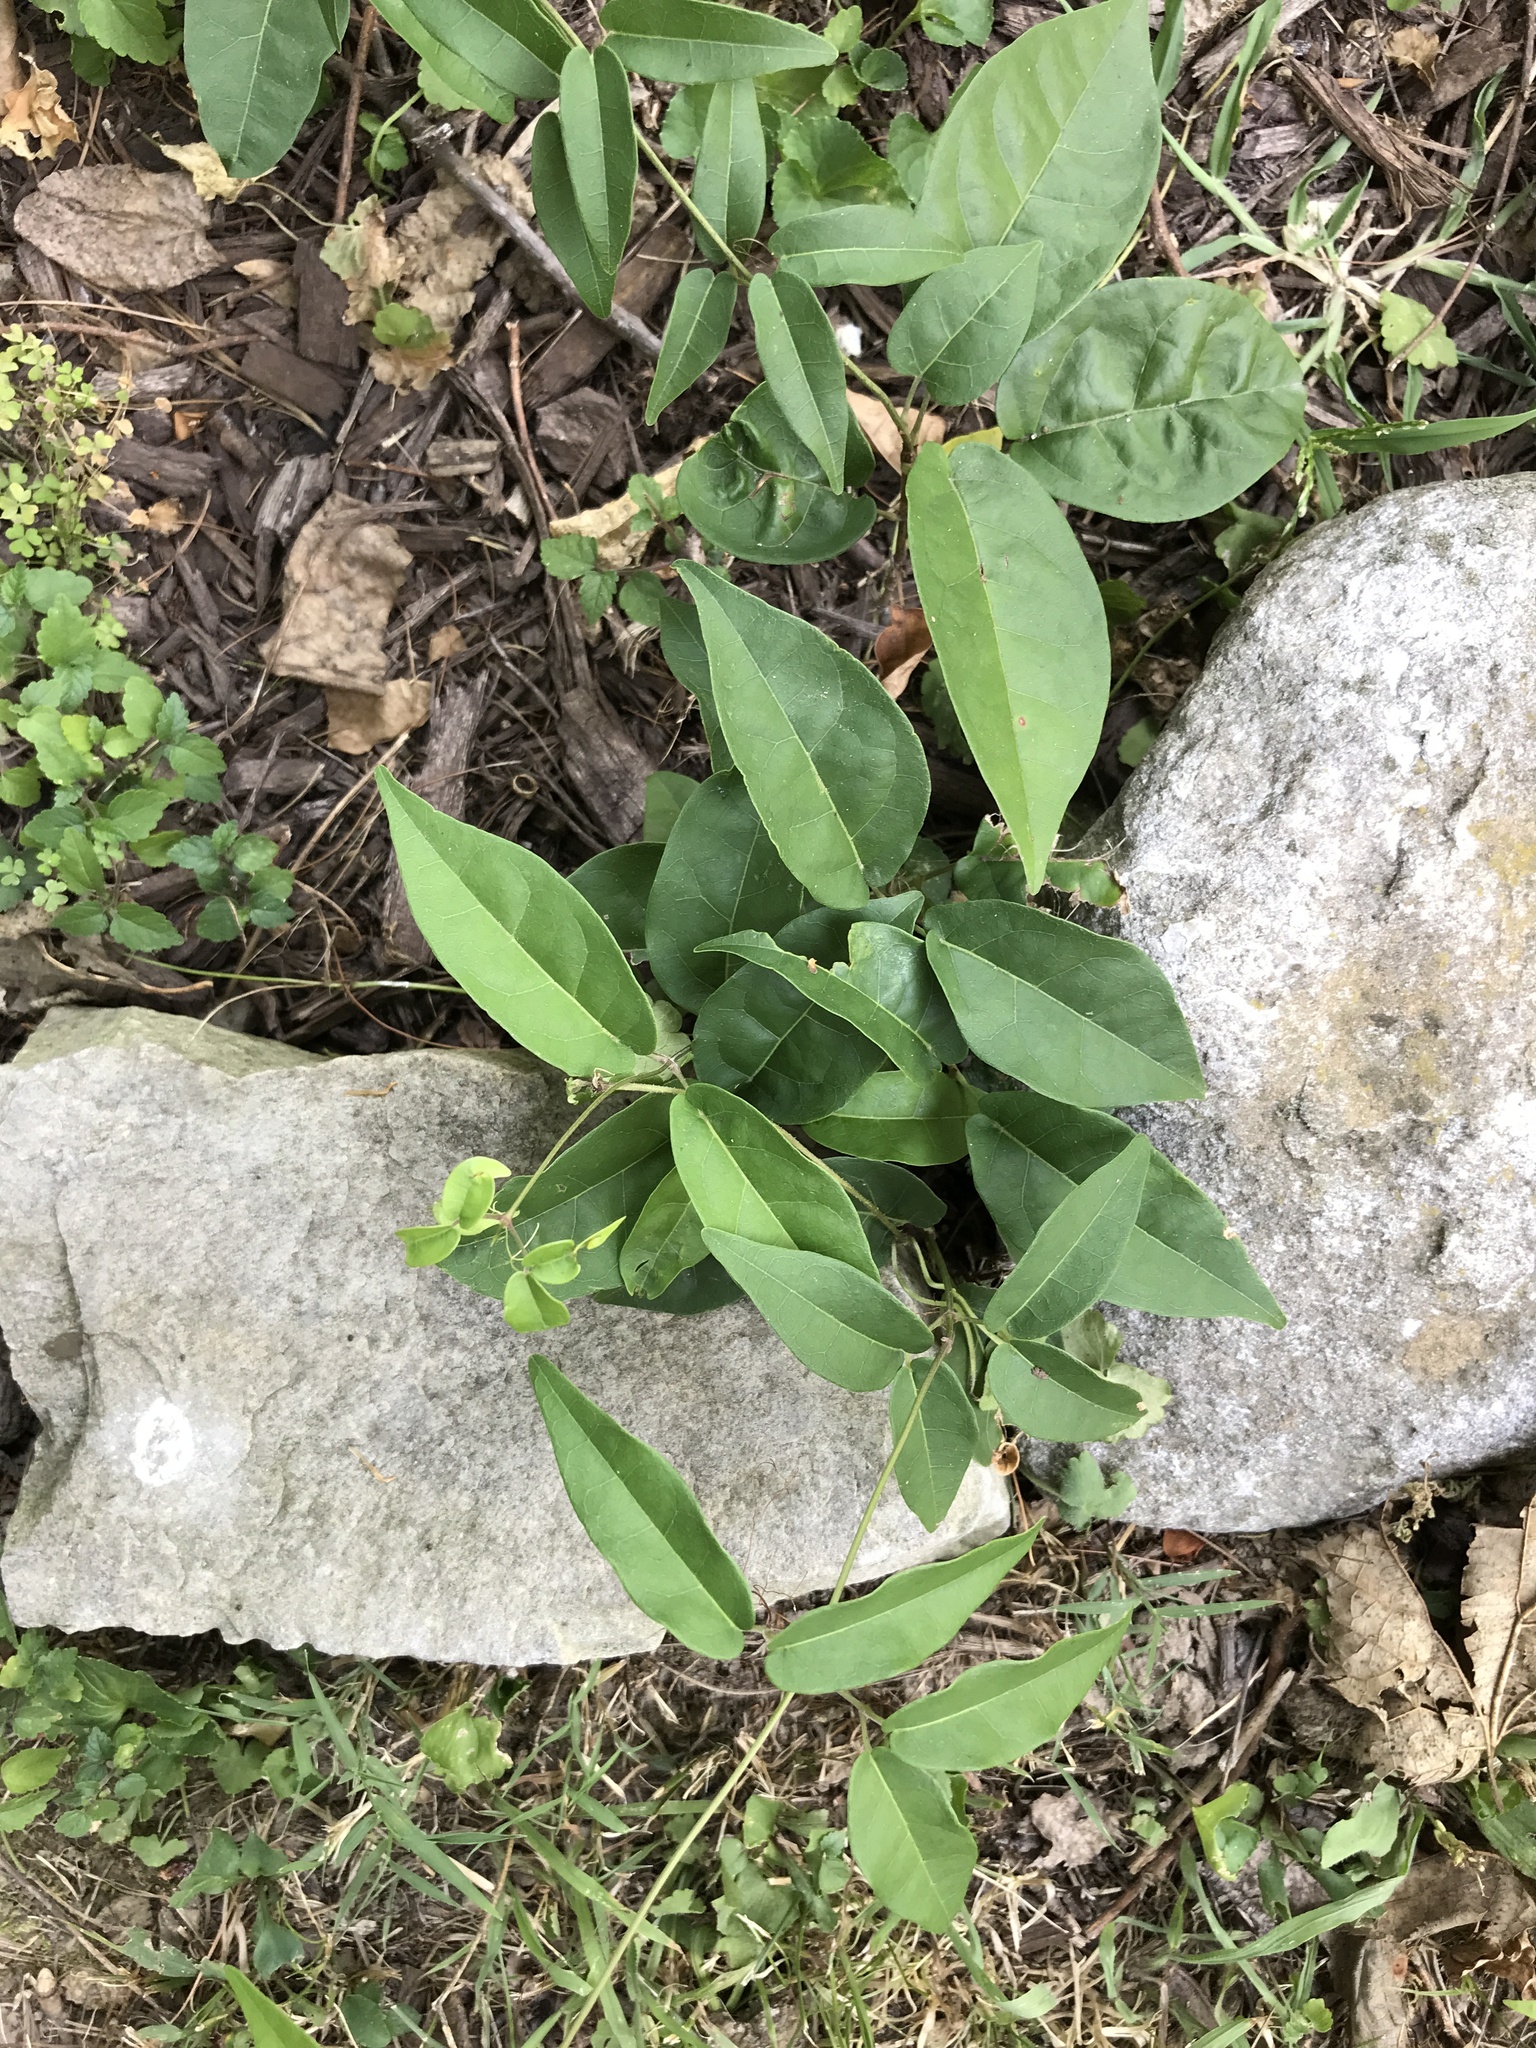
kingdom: Plantae
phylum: Tracheophyta
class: Magnoliopsida
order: Lamiales
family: Bignoniaceae
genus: Bignonia
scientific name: Bignonia capreolata
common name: Crossvine
